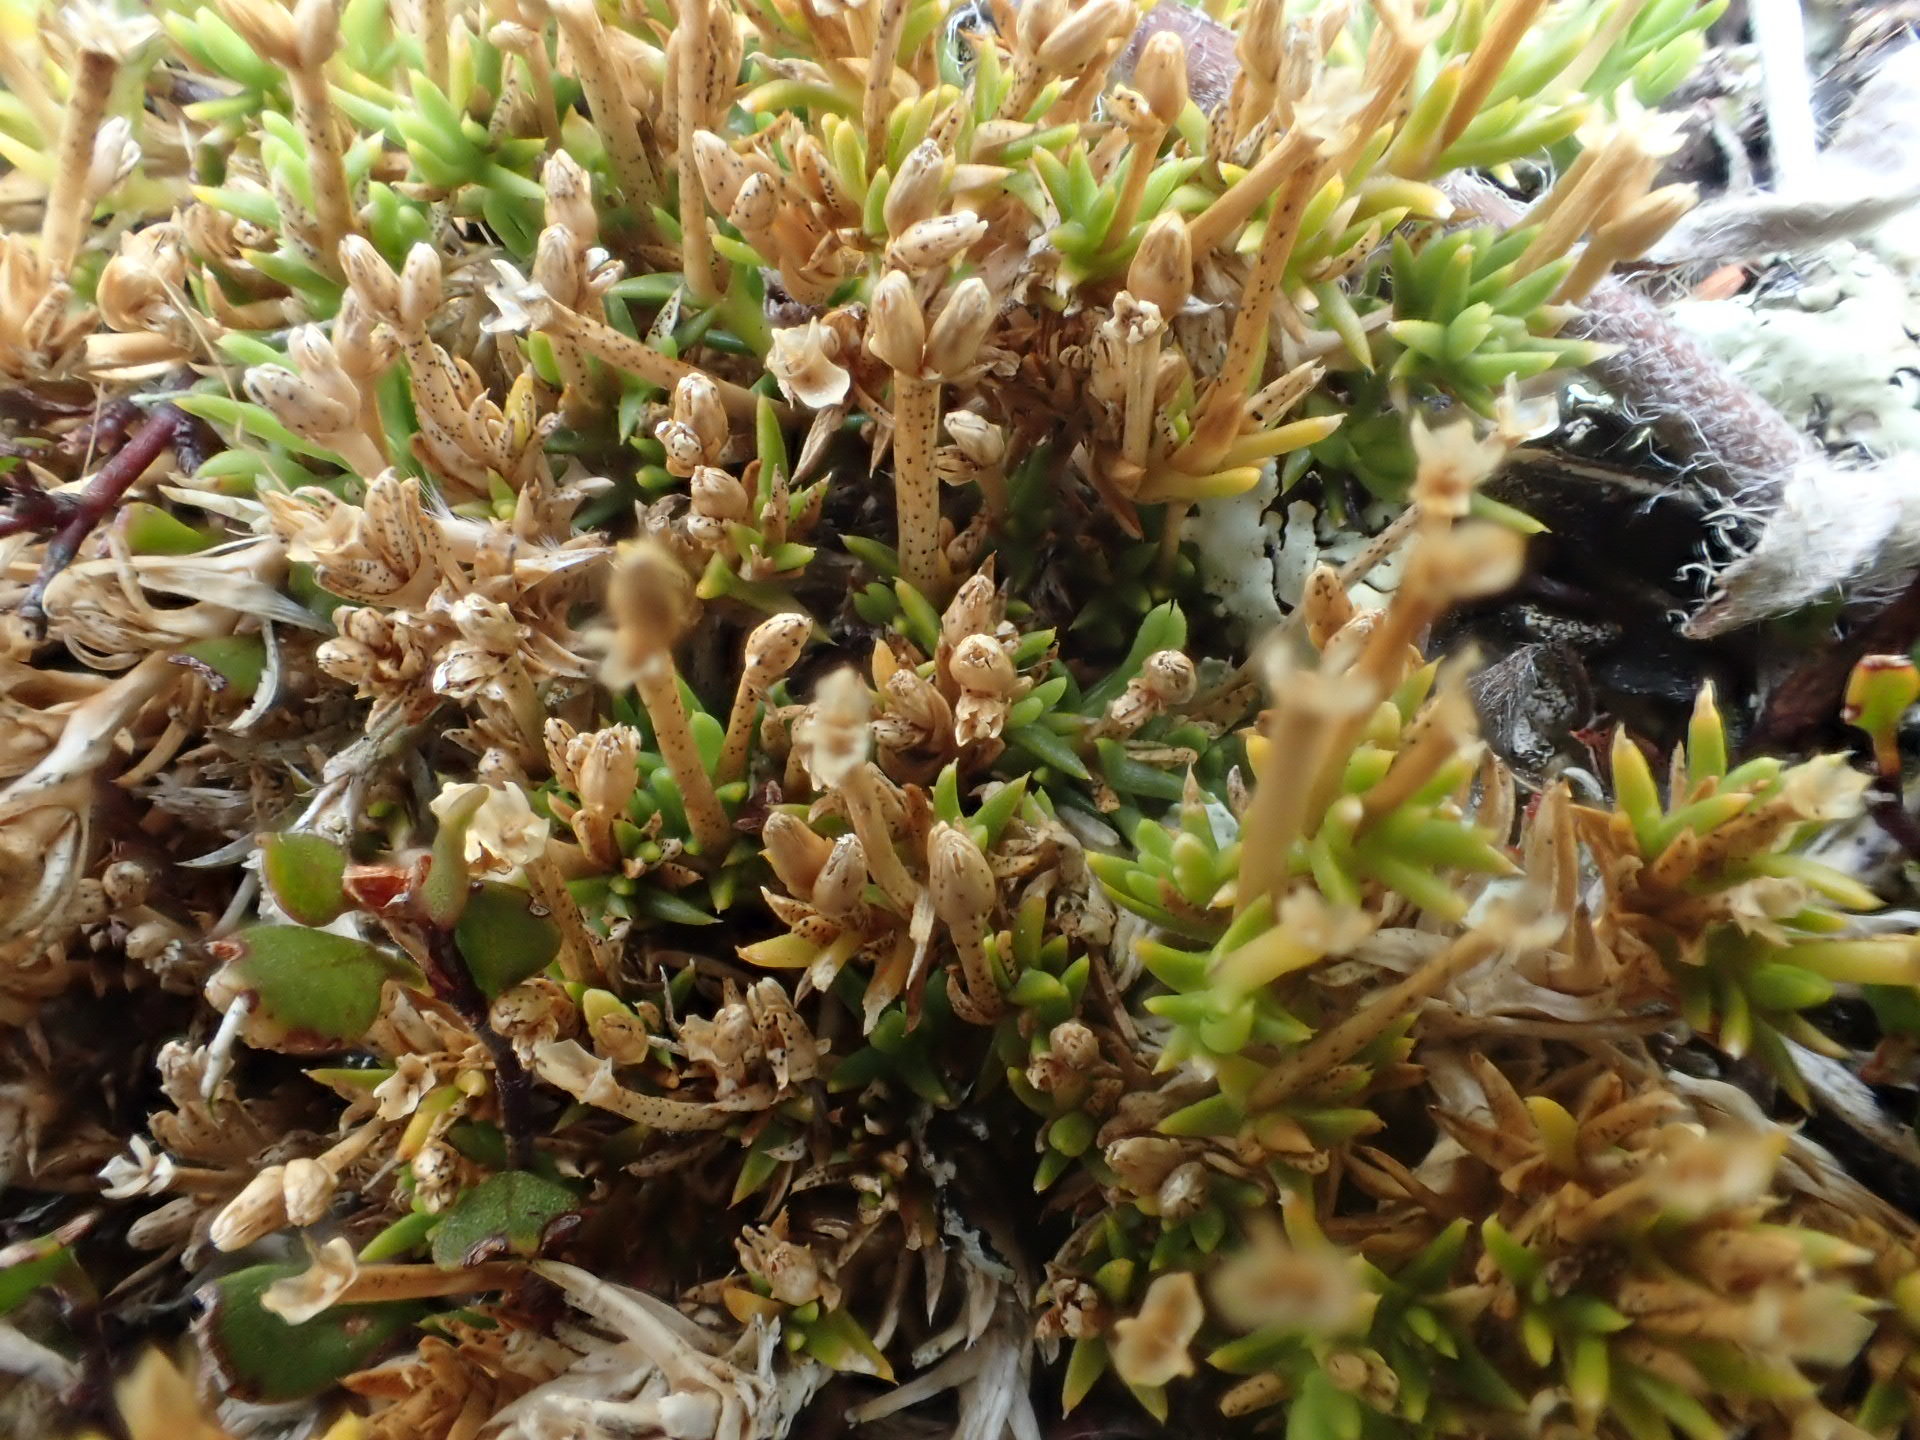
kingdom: Plantae
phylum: Tracheophyta
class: Magnoliopsida
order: Caryophyllales
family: Caryophyllaceae
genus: Scleranthus
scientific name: Scleranthus biflorus
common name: Two-flower knawel
